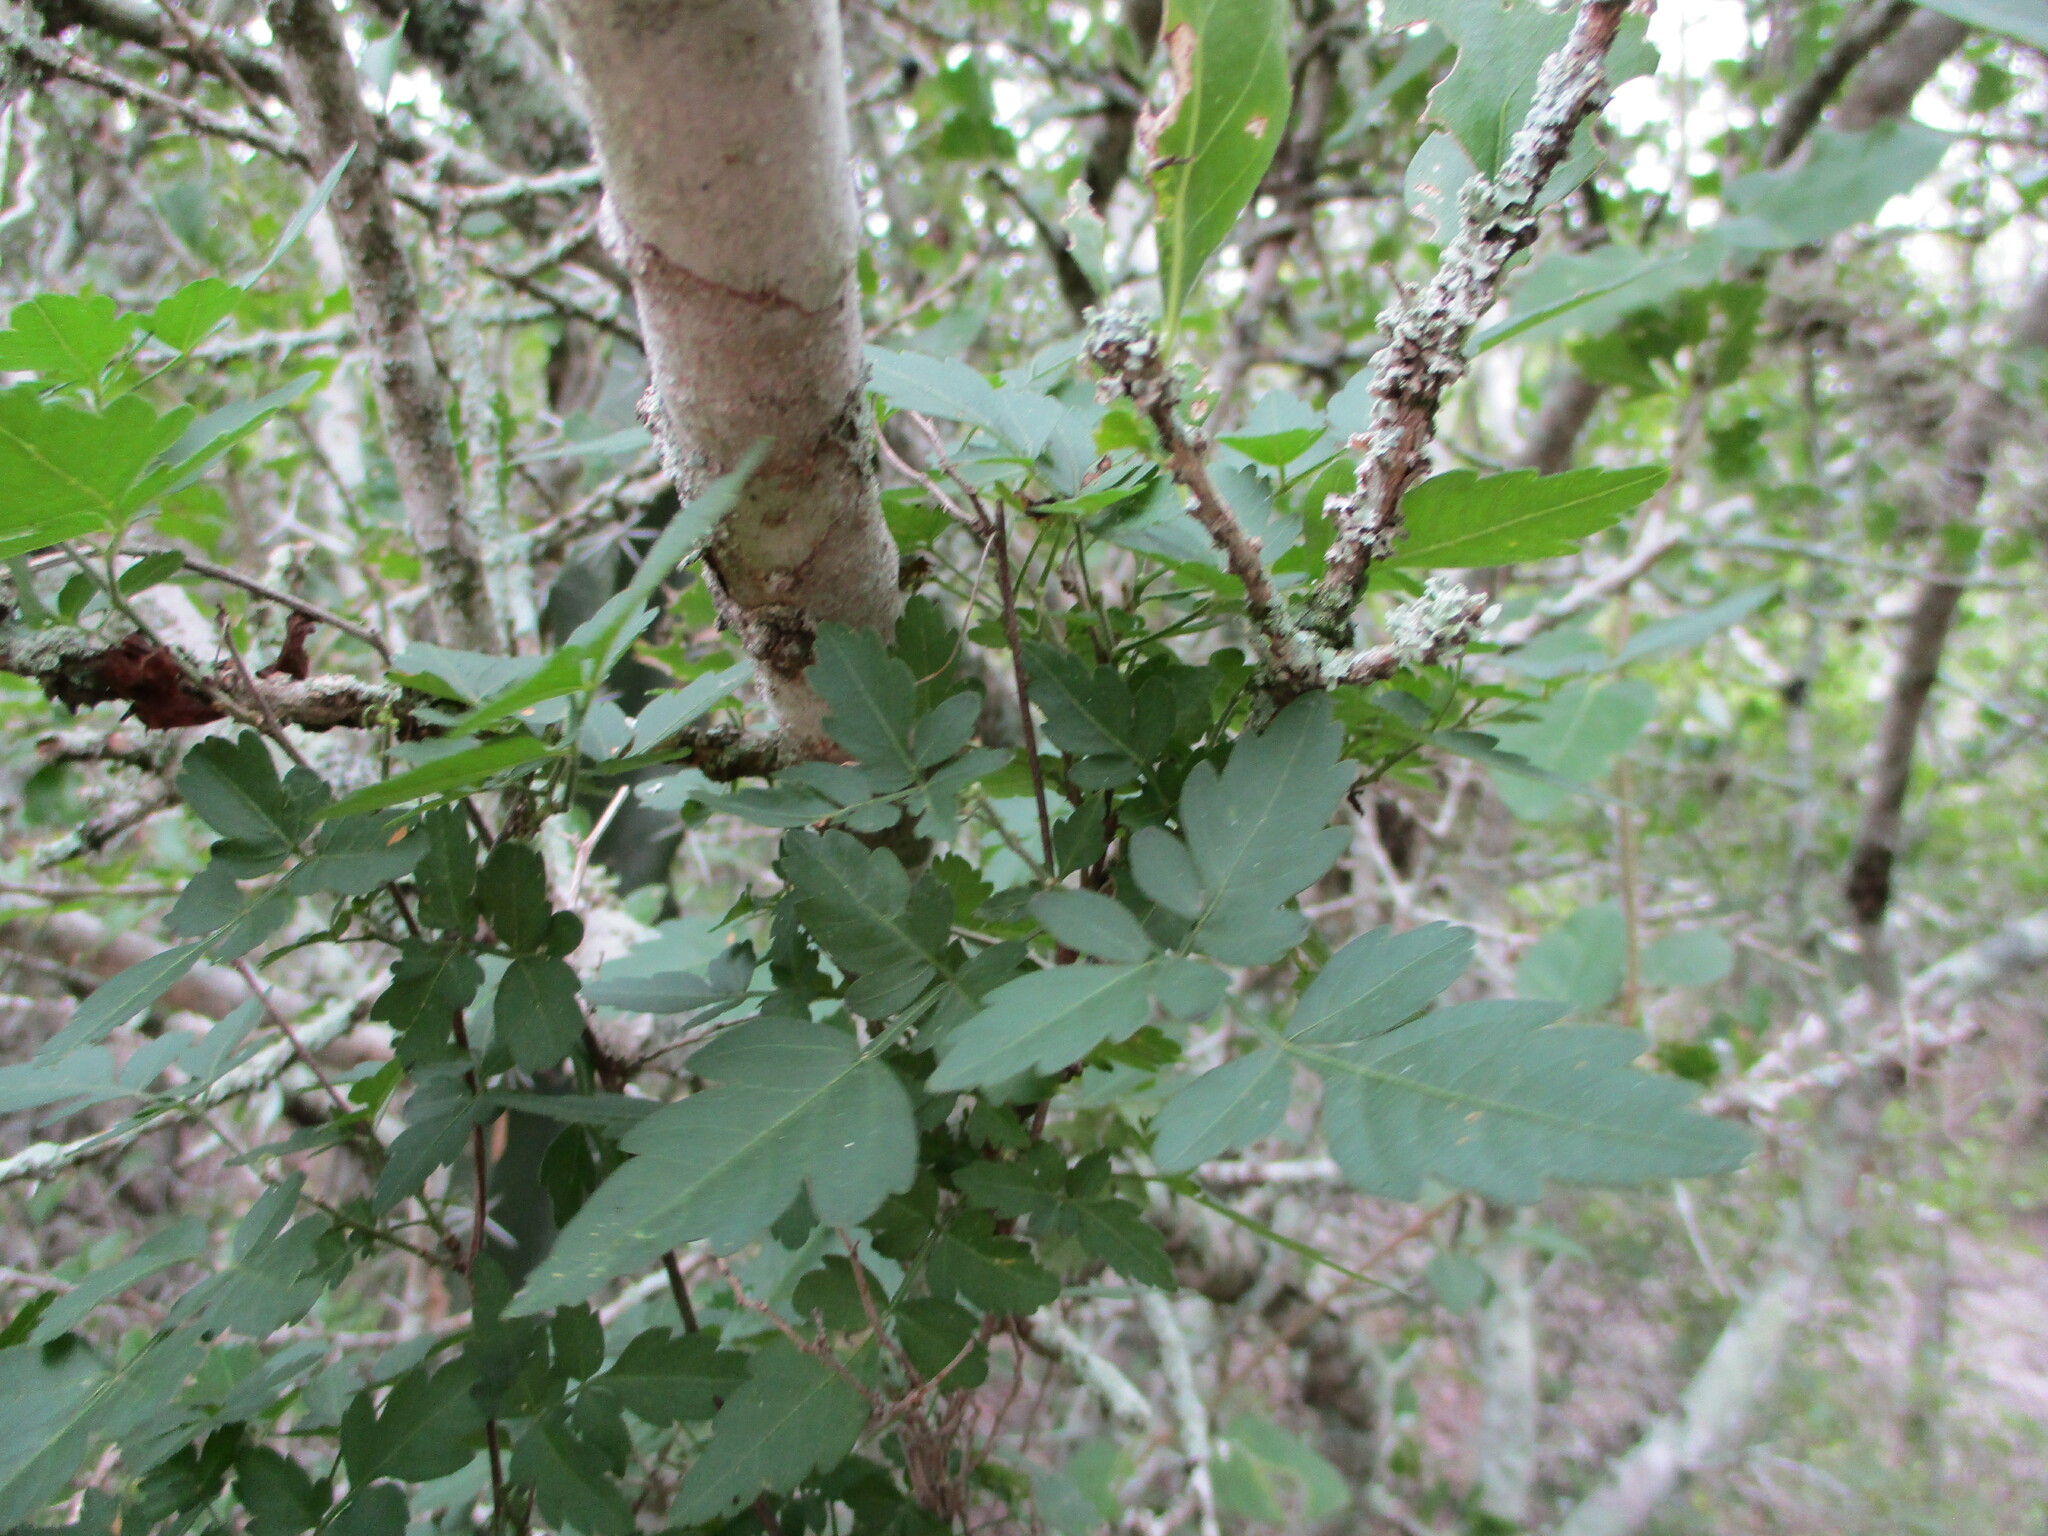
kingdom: Plantae
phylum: Tracheophyta
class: Magnoliopsida
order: Sapindales
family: Sapindaceae
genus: Serjania
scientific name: Serjania brachycarpa
